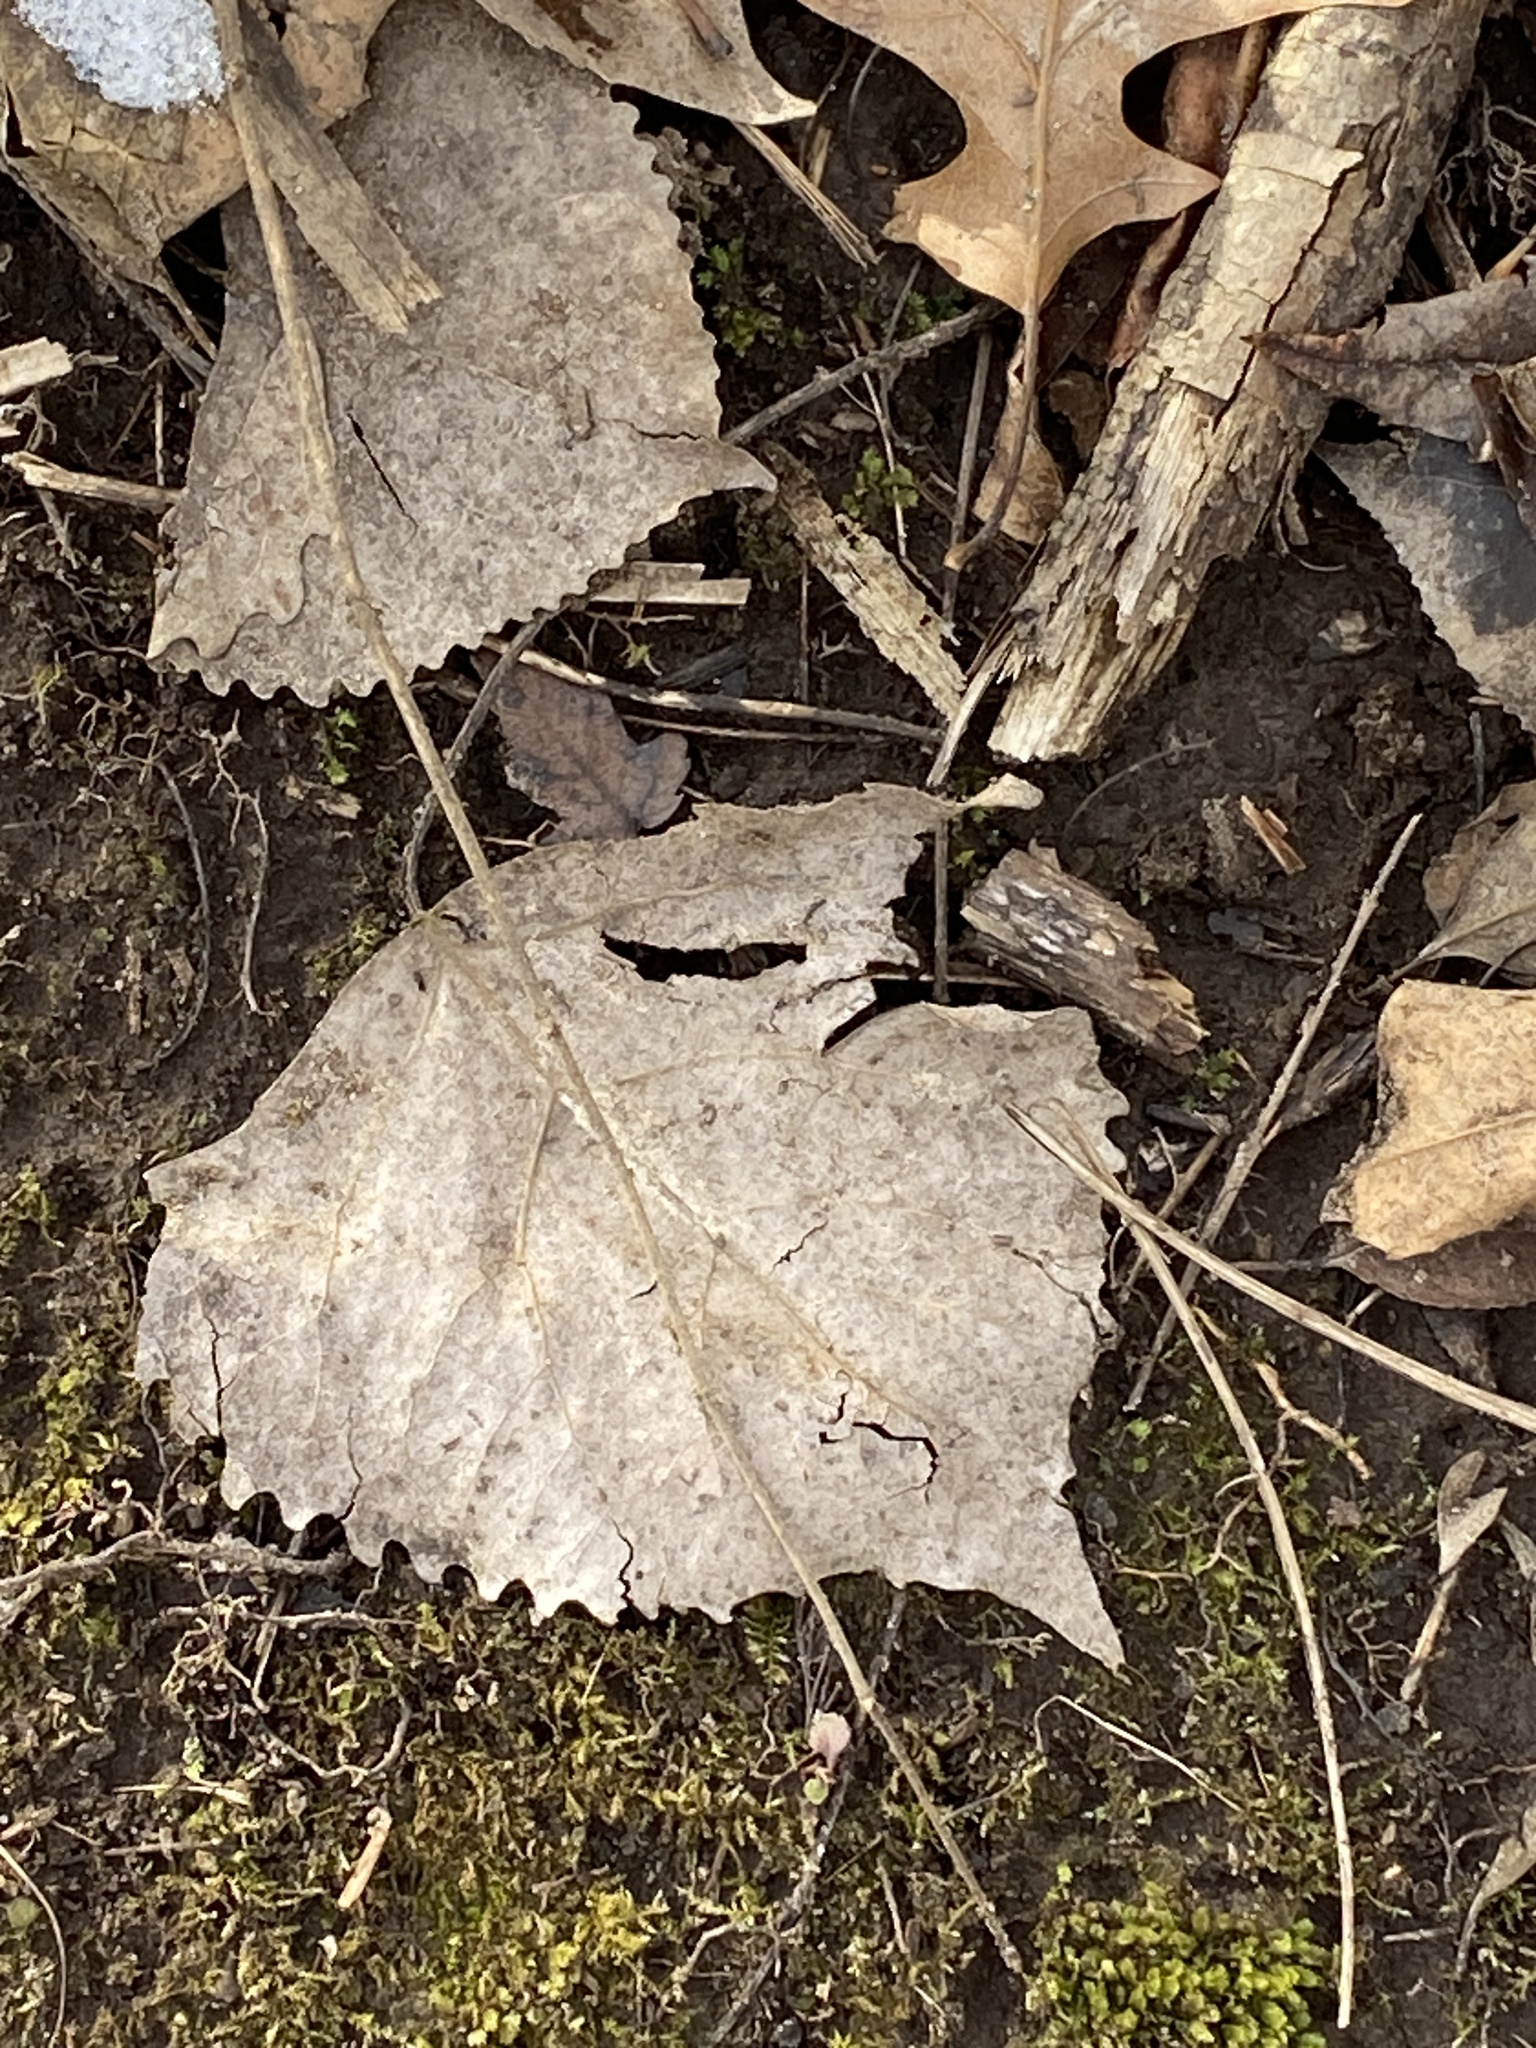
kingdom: Plantae
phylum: Tracheophyta
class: Magnoliopsida
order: Malpighiales
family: Salicaceae
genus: Populus
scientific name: Populus deltoides
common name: Eastern cottonwood
